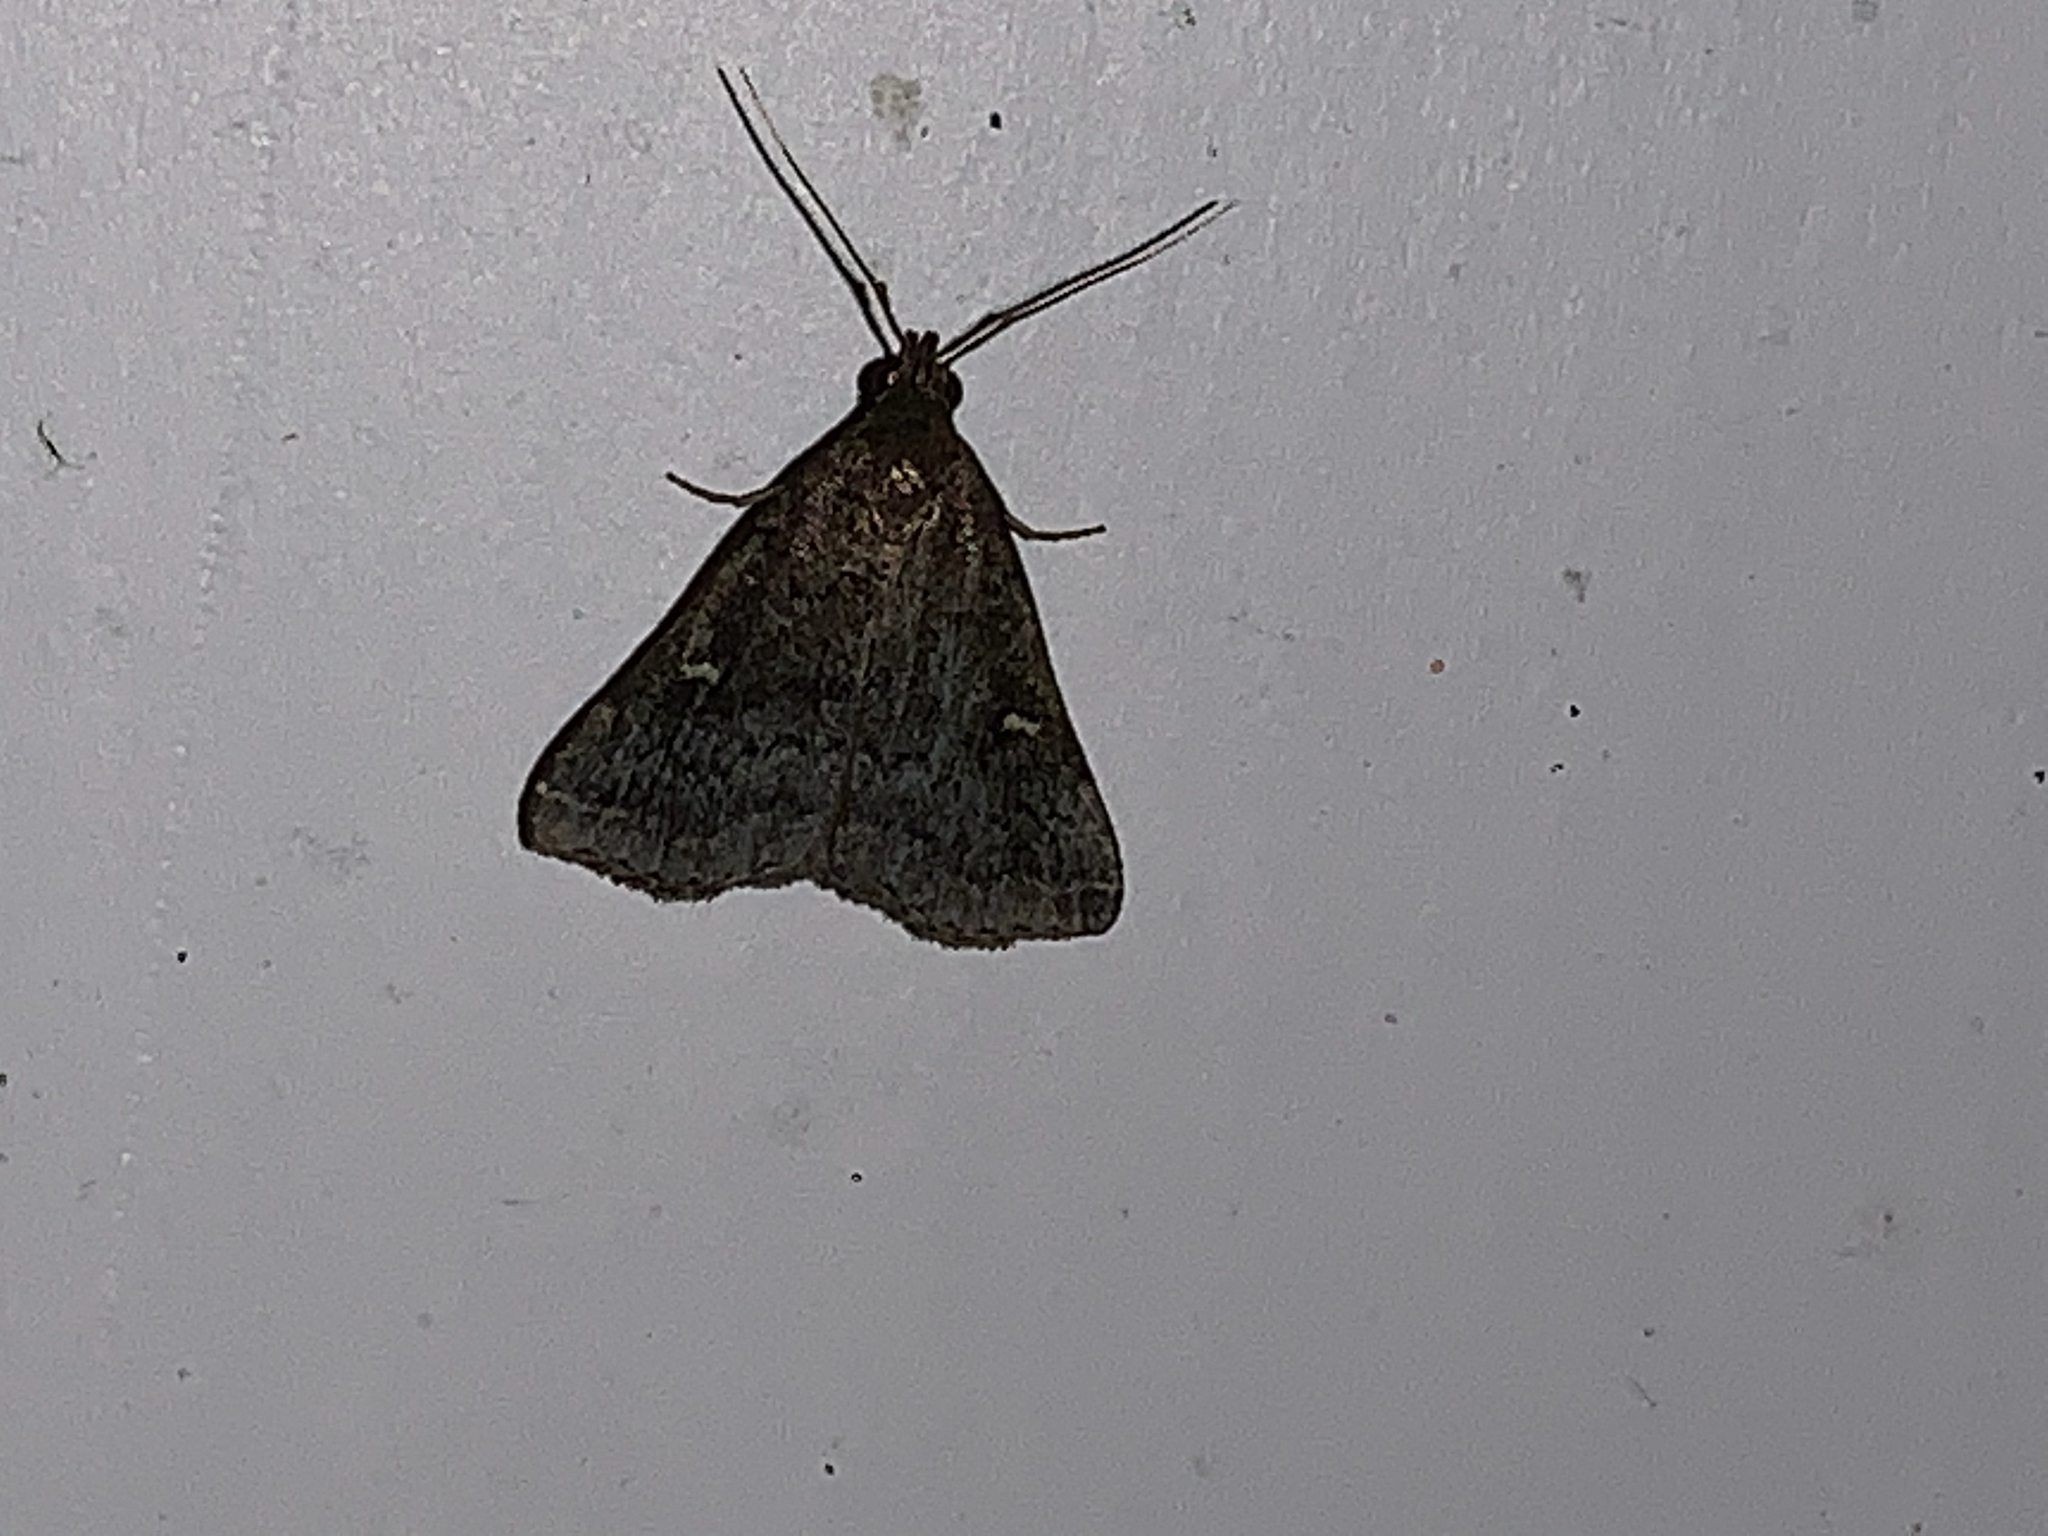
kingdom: Animalia
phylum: Arthropoda
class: Insecta
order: Lepidoptera
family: Erebidae
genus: Tetanolita
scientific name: Tetanolita mynesalis
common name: Smoky tetanolita moth
